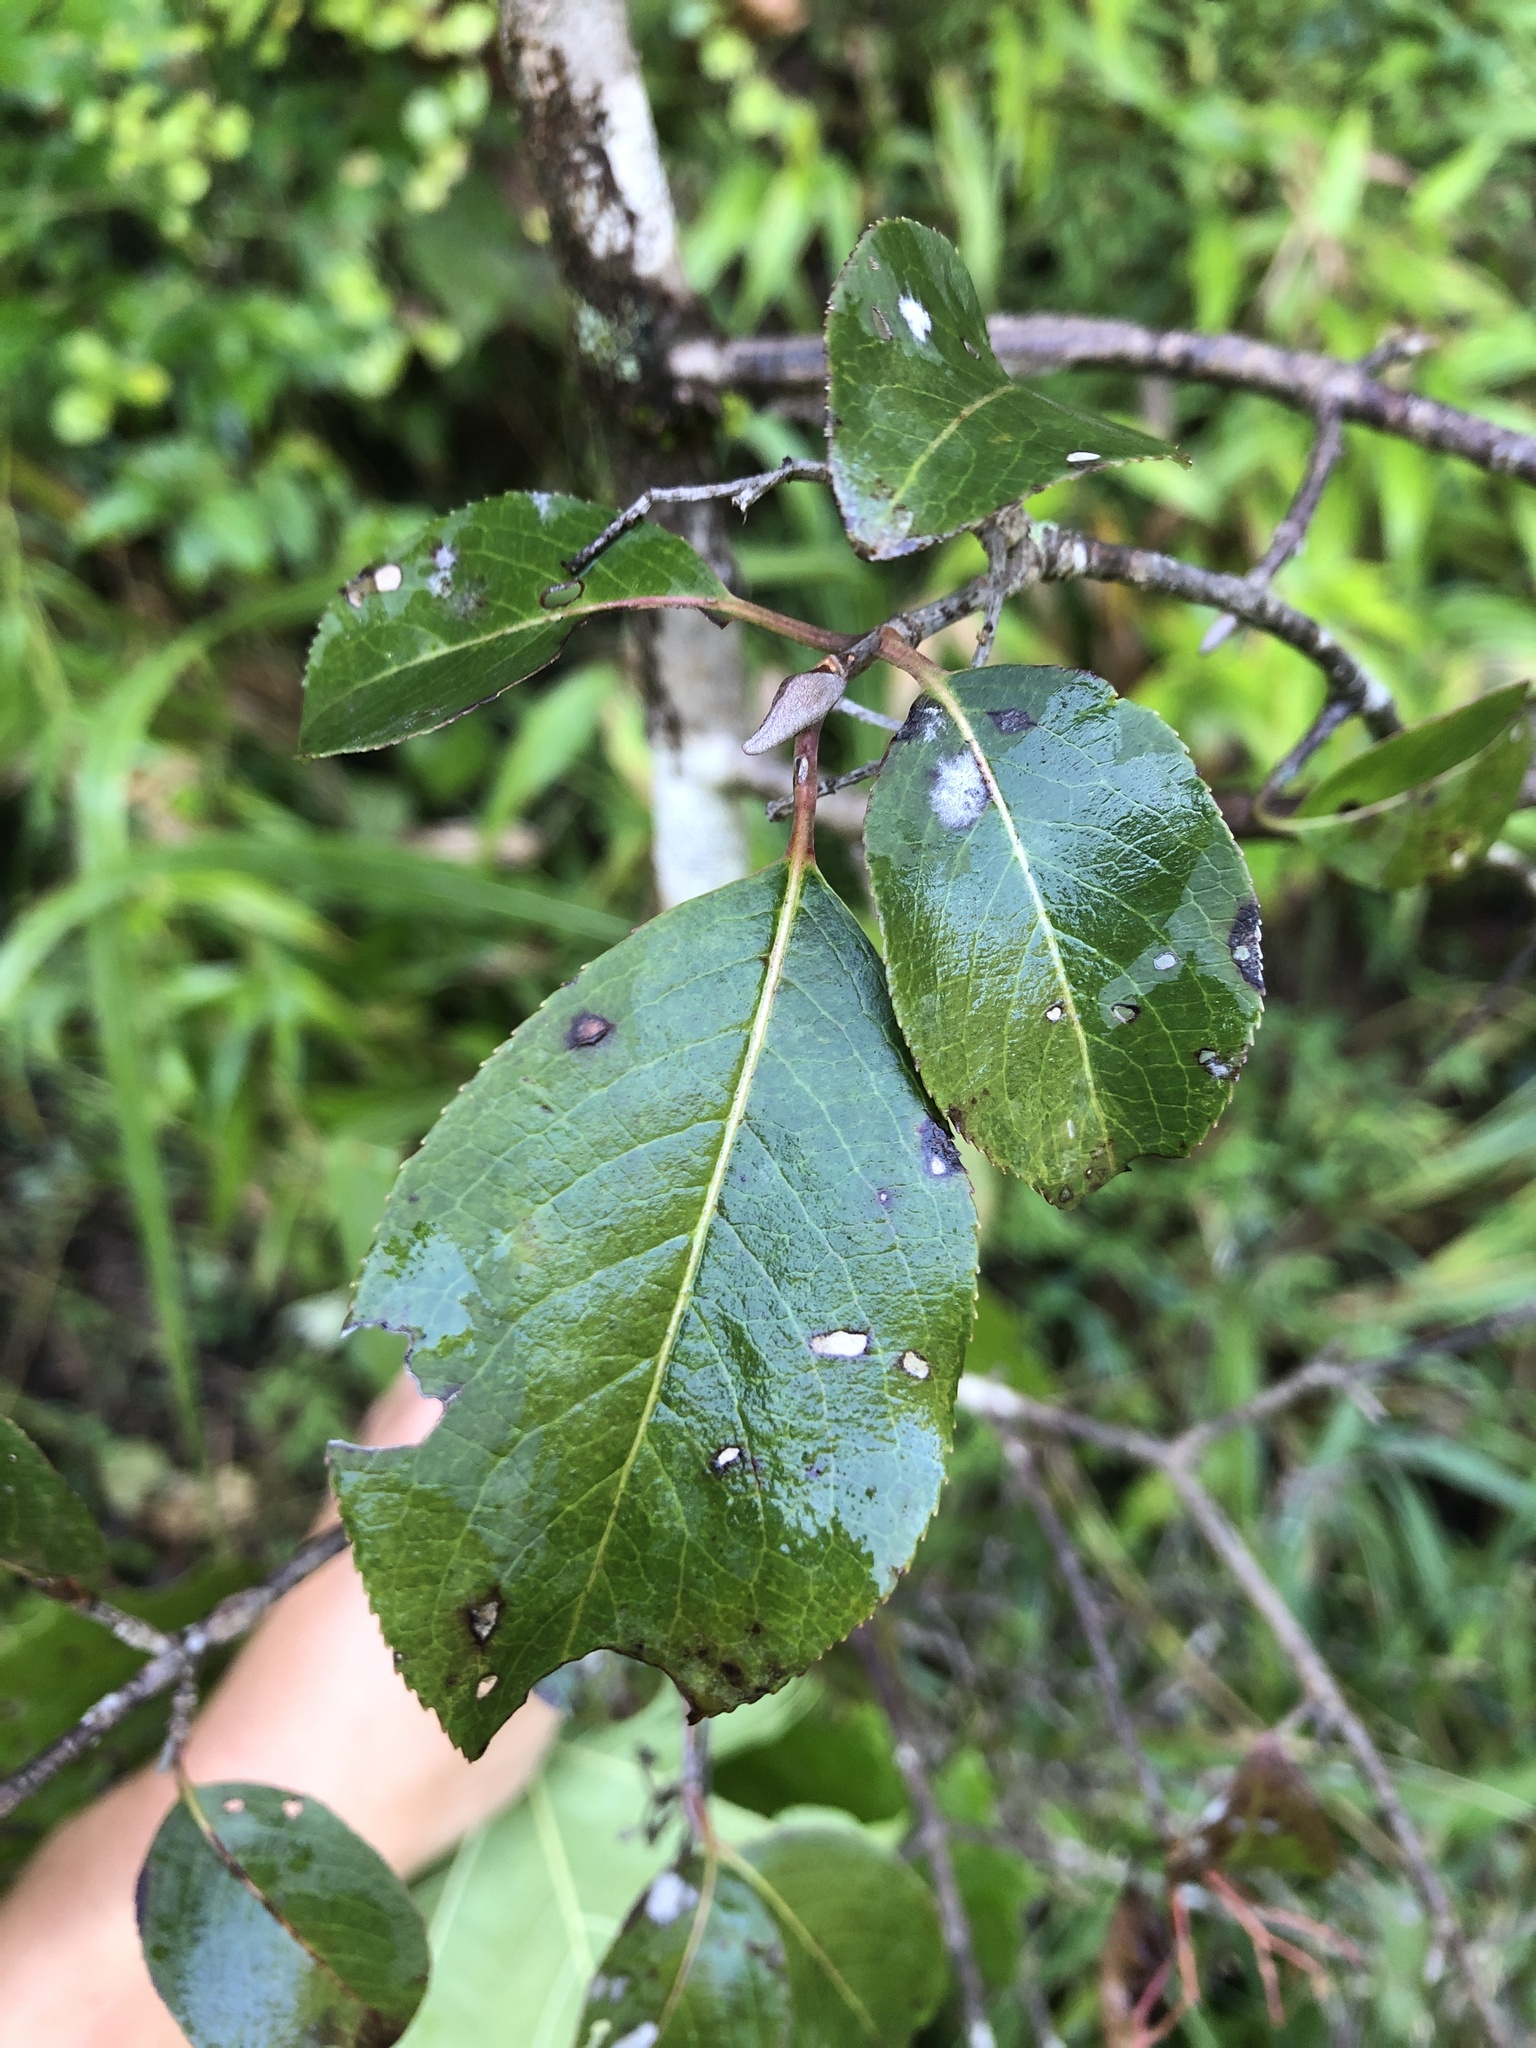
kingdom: Plantae
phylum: Tracheophyta
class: Magnoliopsida
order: Dipsacales
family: Viburnaceae
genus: Viburnum
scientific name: Viburnum prunifolium
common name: Black haw
